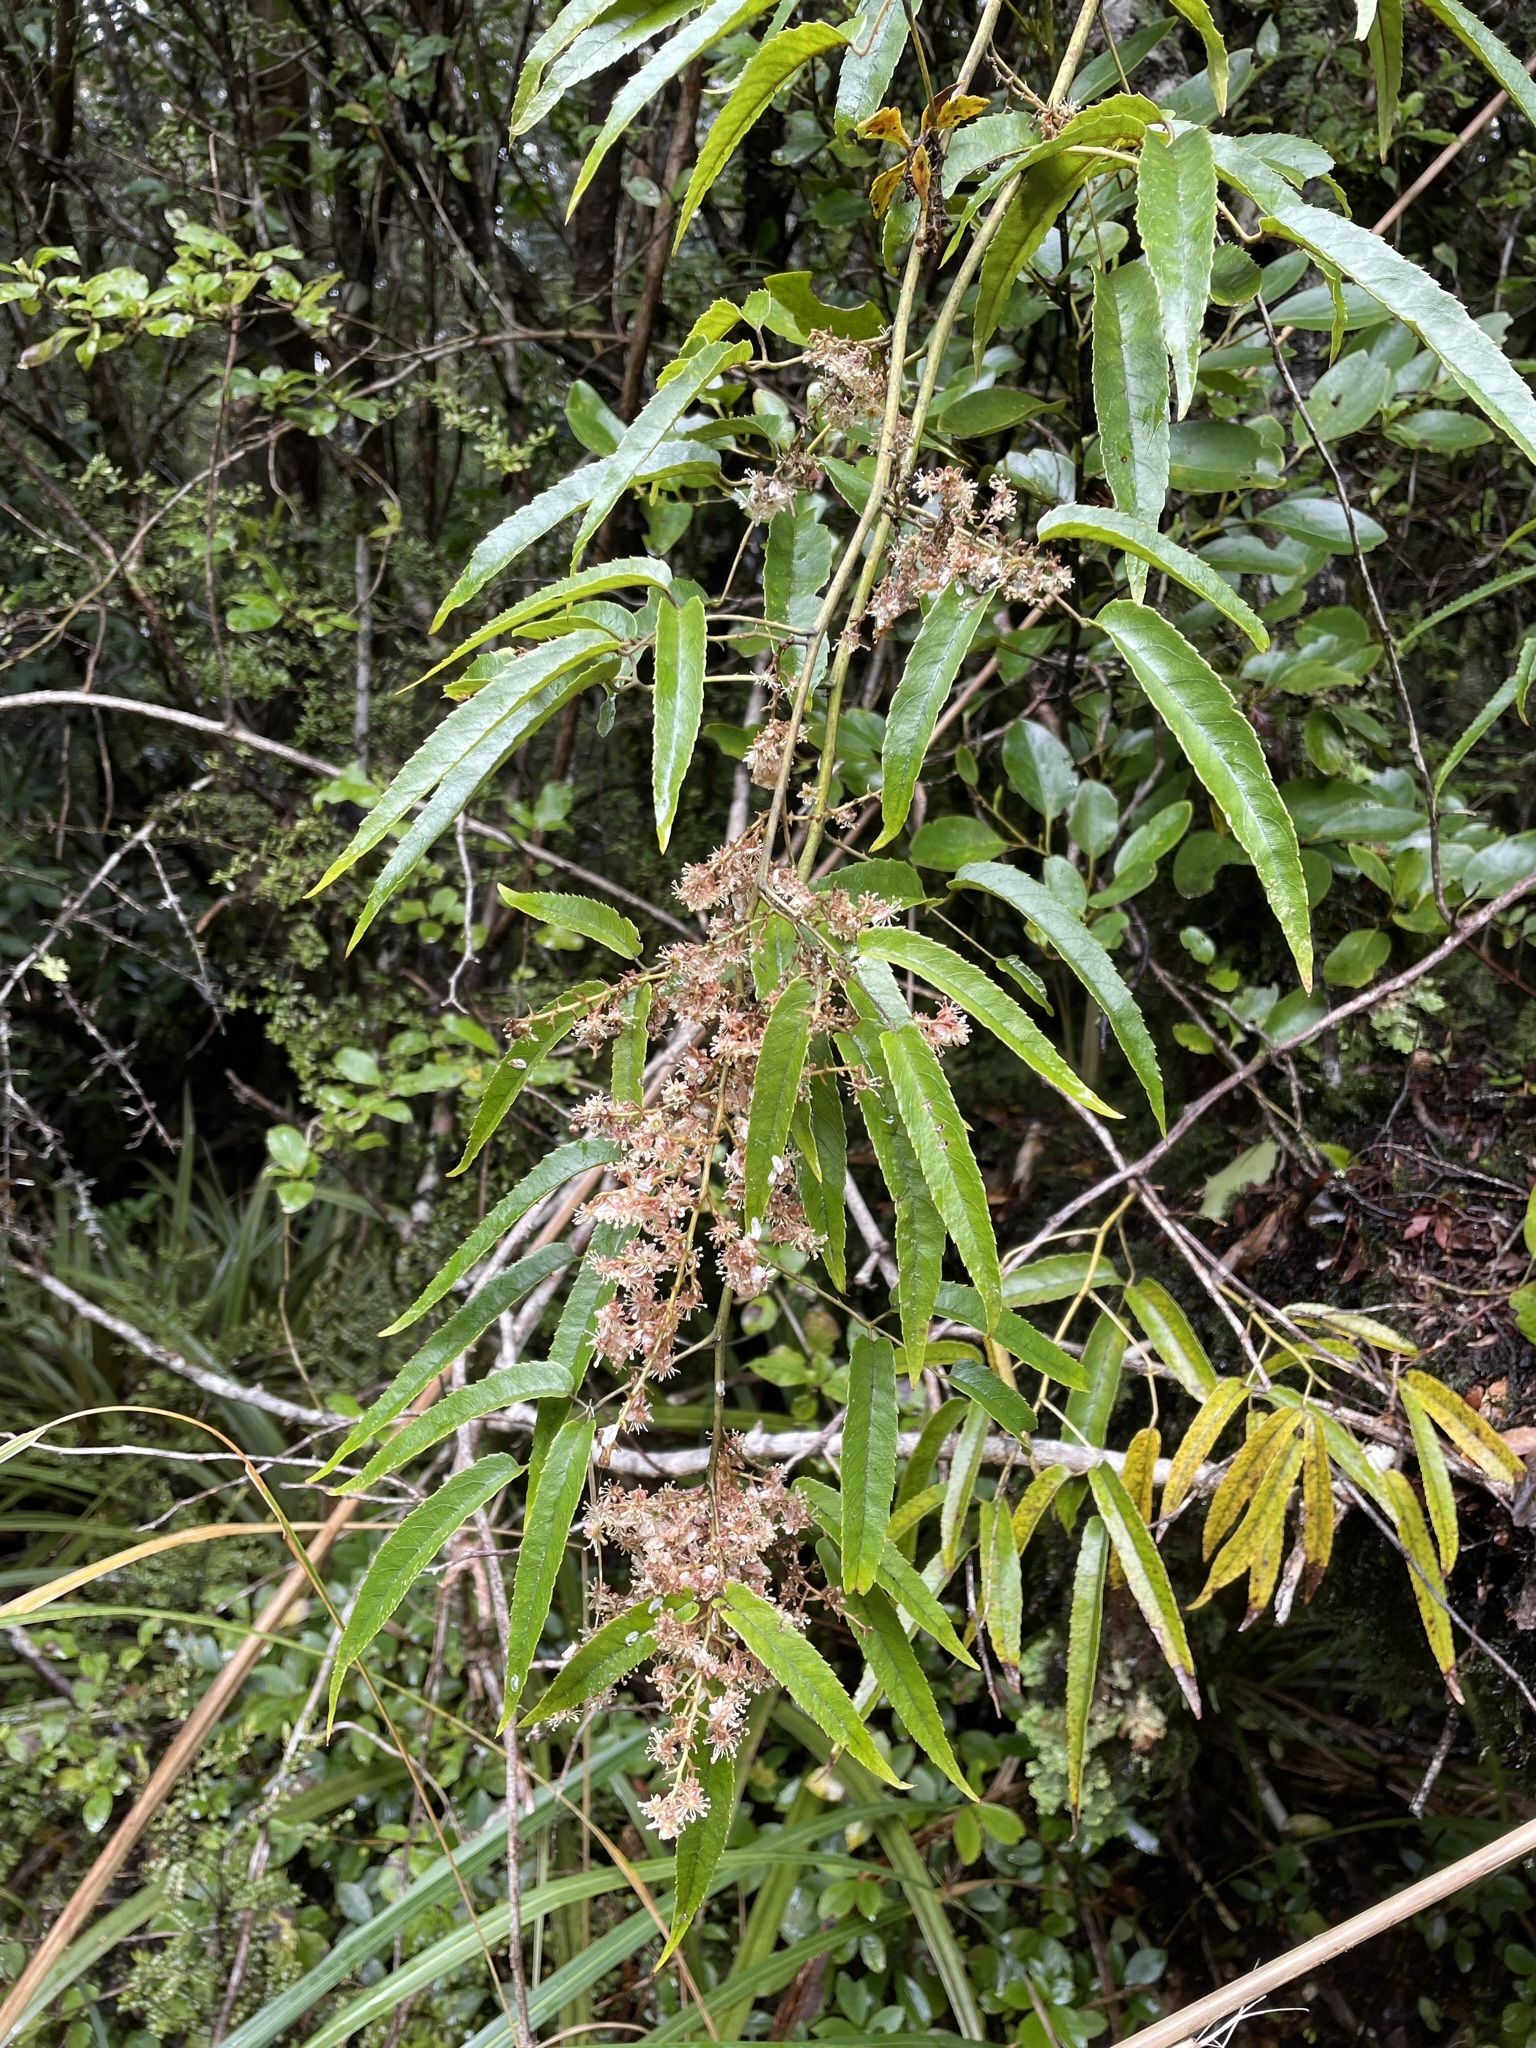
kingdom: Plantae
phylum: Tracheophyta
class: Magnoliopsida
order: Rosales
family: Rosaceae
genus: Rubus
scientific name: Rubus cissoides
